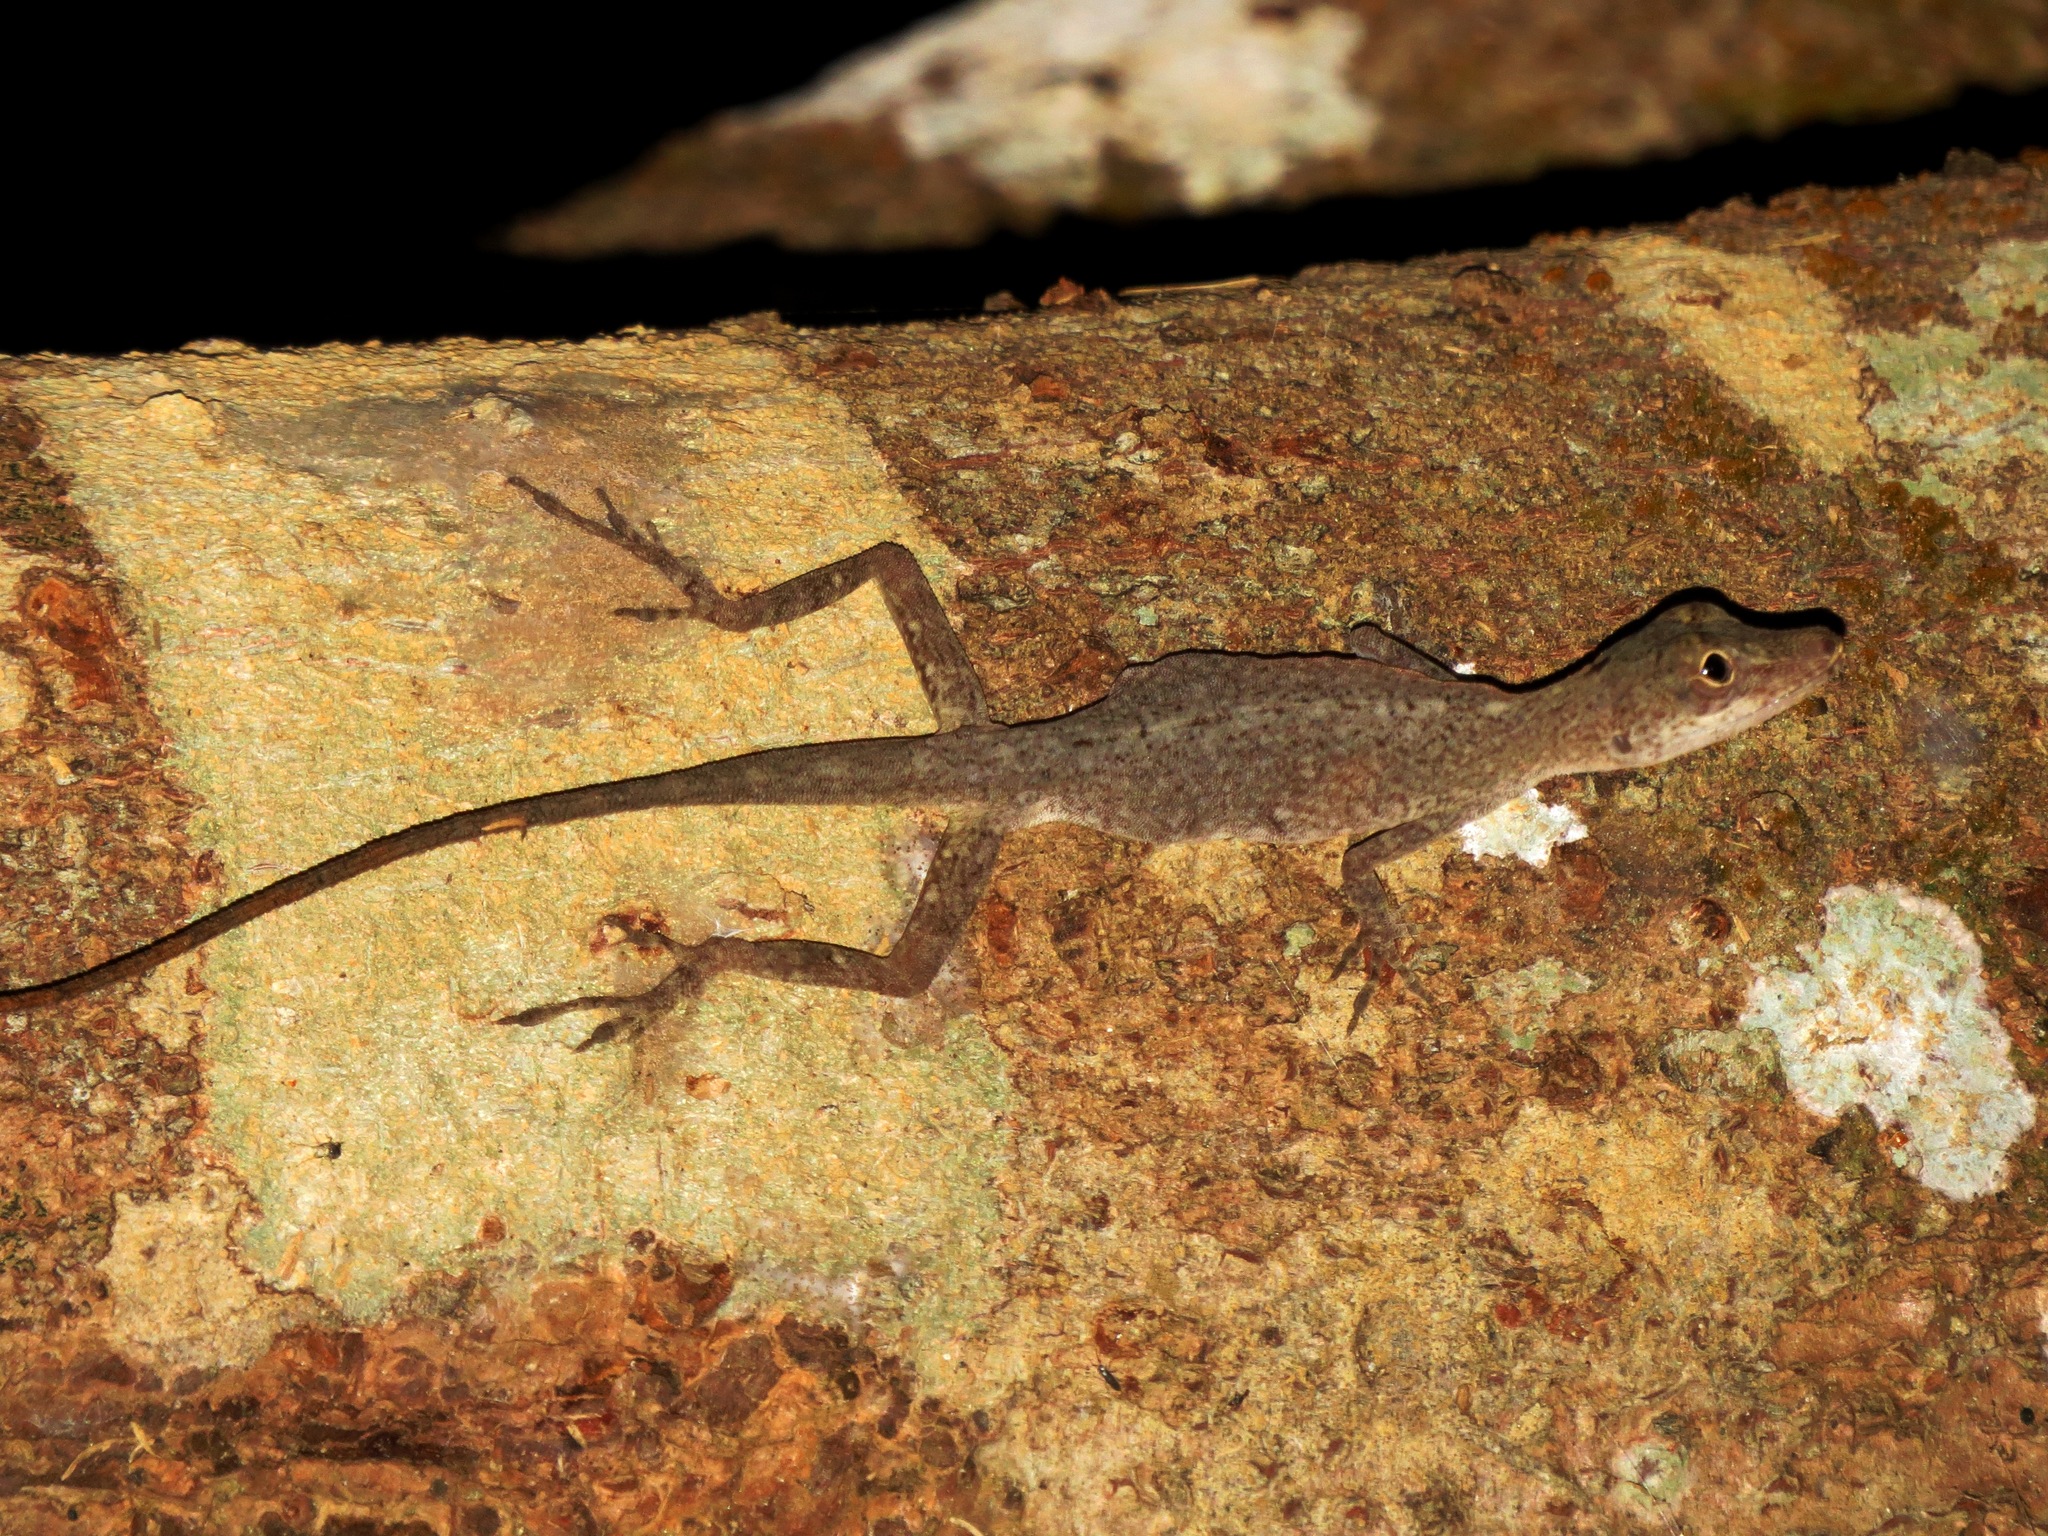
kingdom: Animalia
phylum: Chordata
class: Squamata
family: Dactyloidae
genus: Anolis
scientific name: Anolis fuscoauratus
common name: Brown-eared anole
